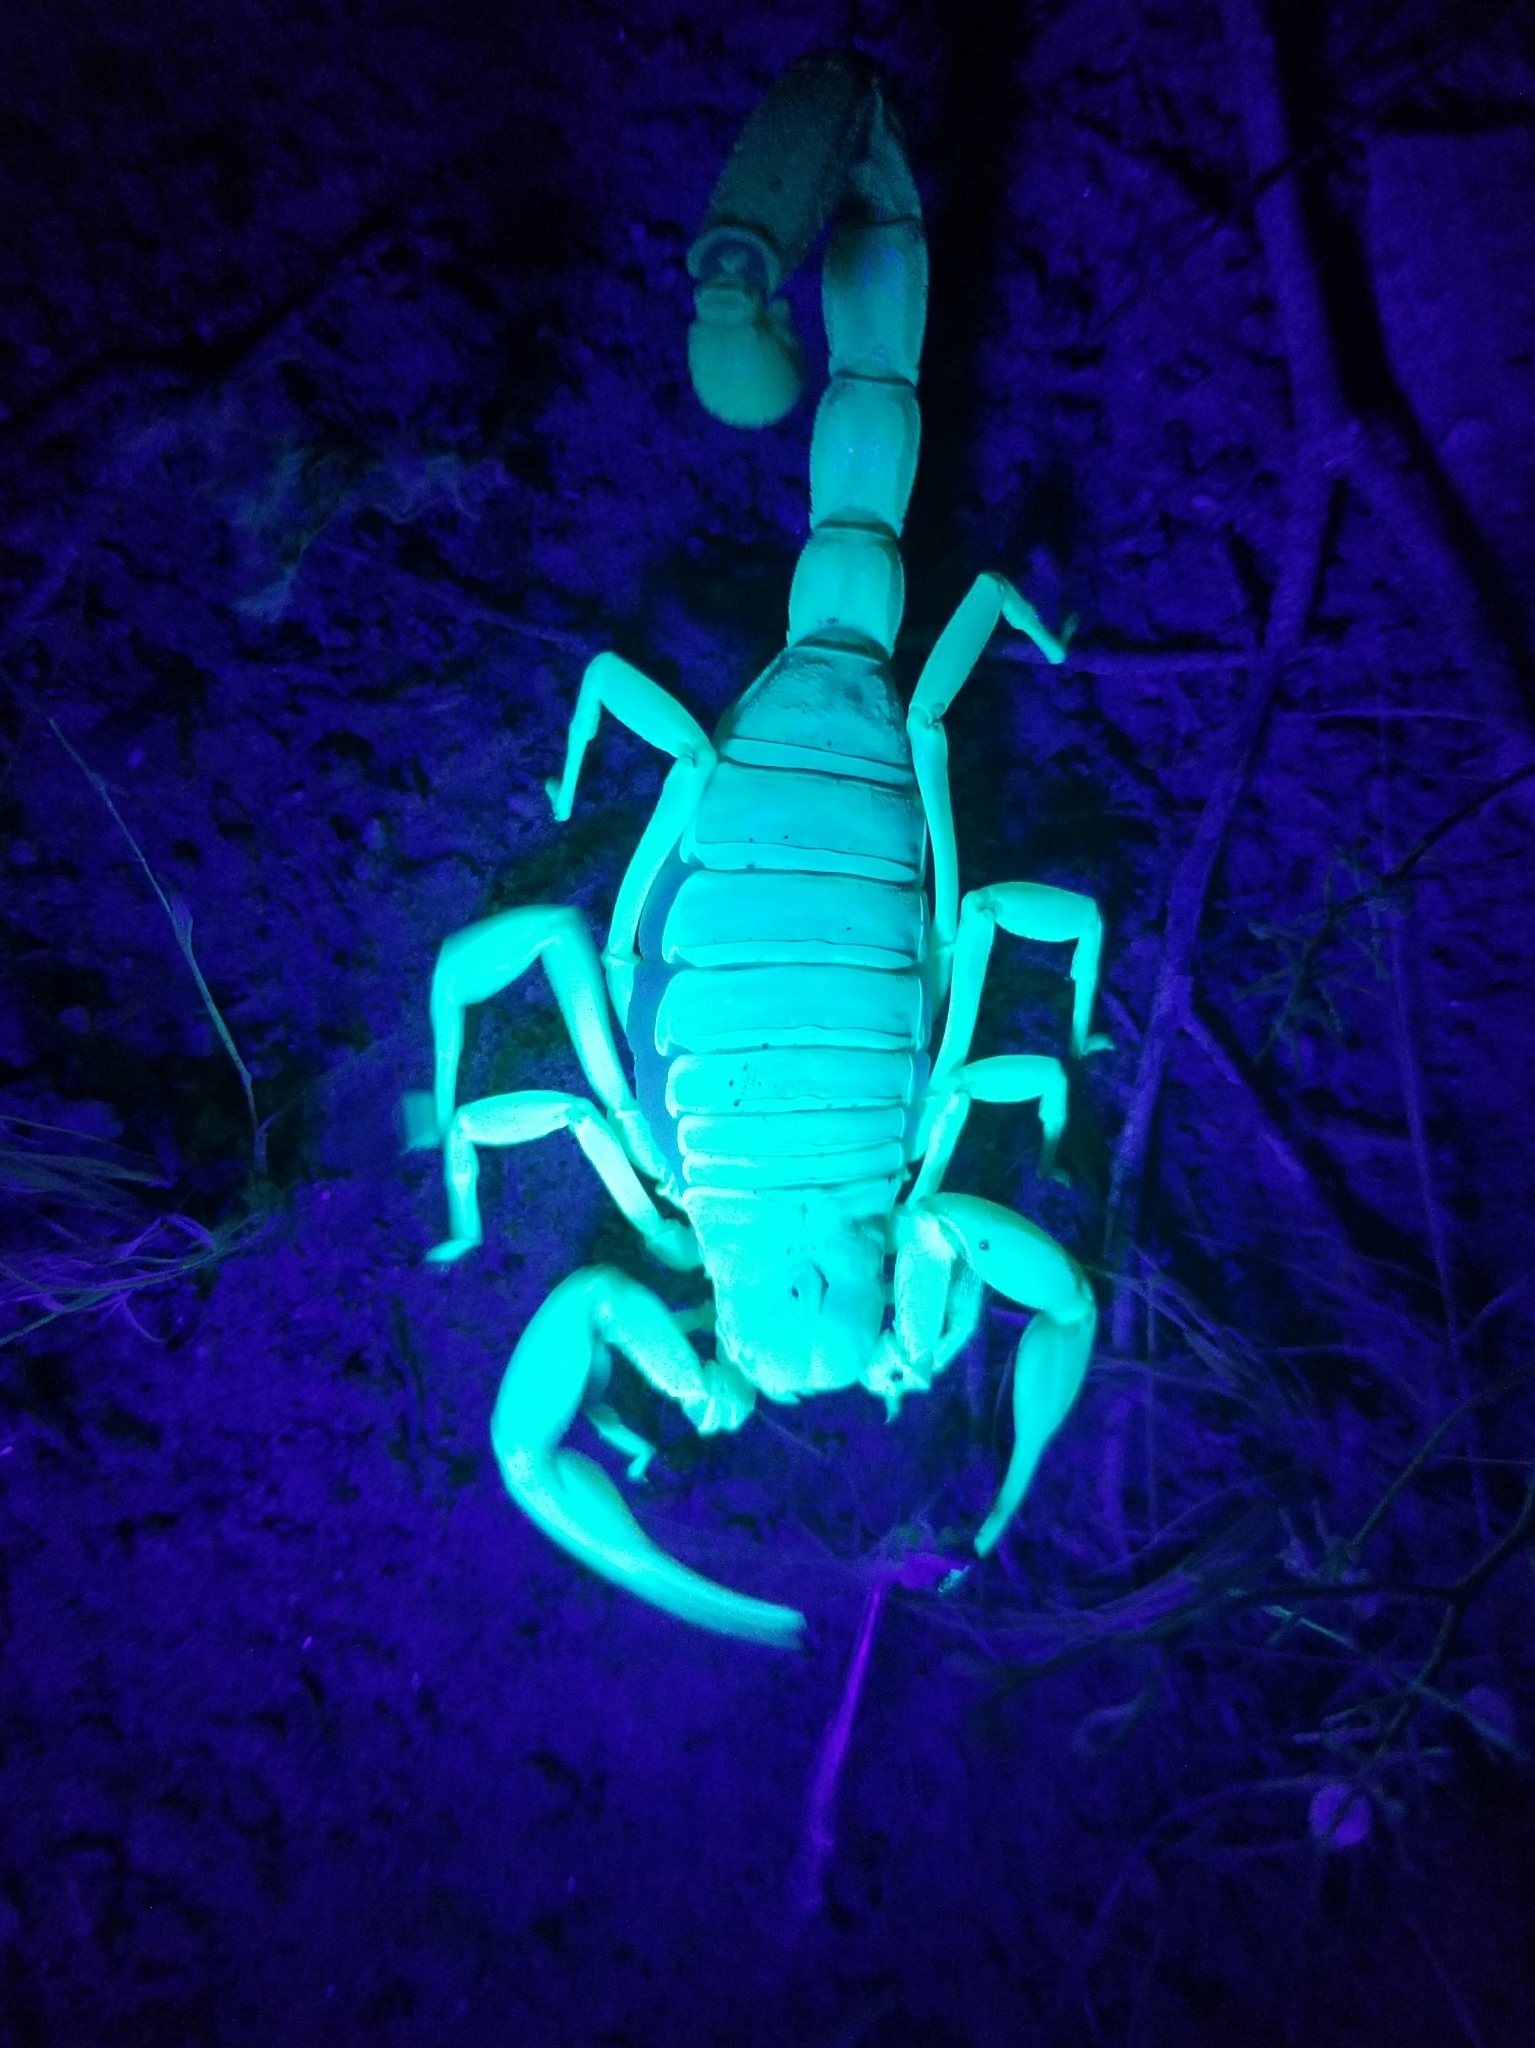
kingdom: Animalia
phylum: Arthropoda
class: Arachnida
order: Scorpiones
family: Hadruridae
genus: Hadrurus
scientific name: Hadrurus arizonensis
